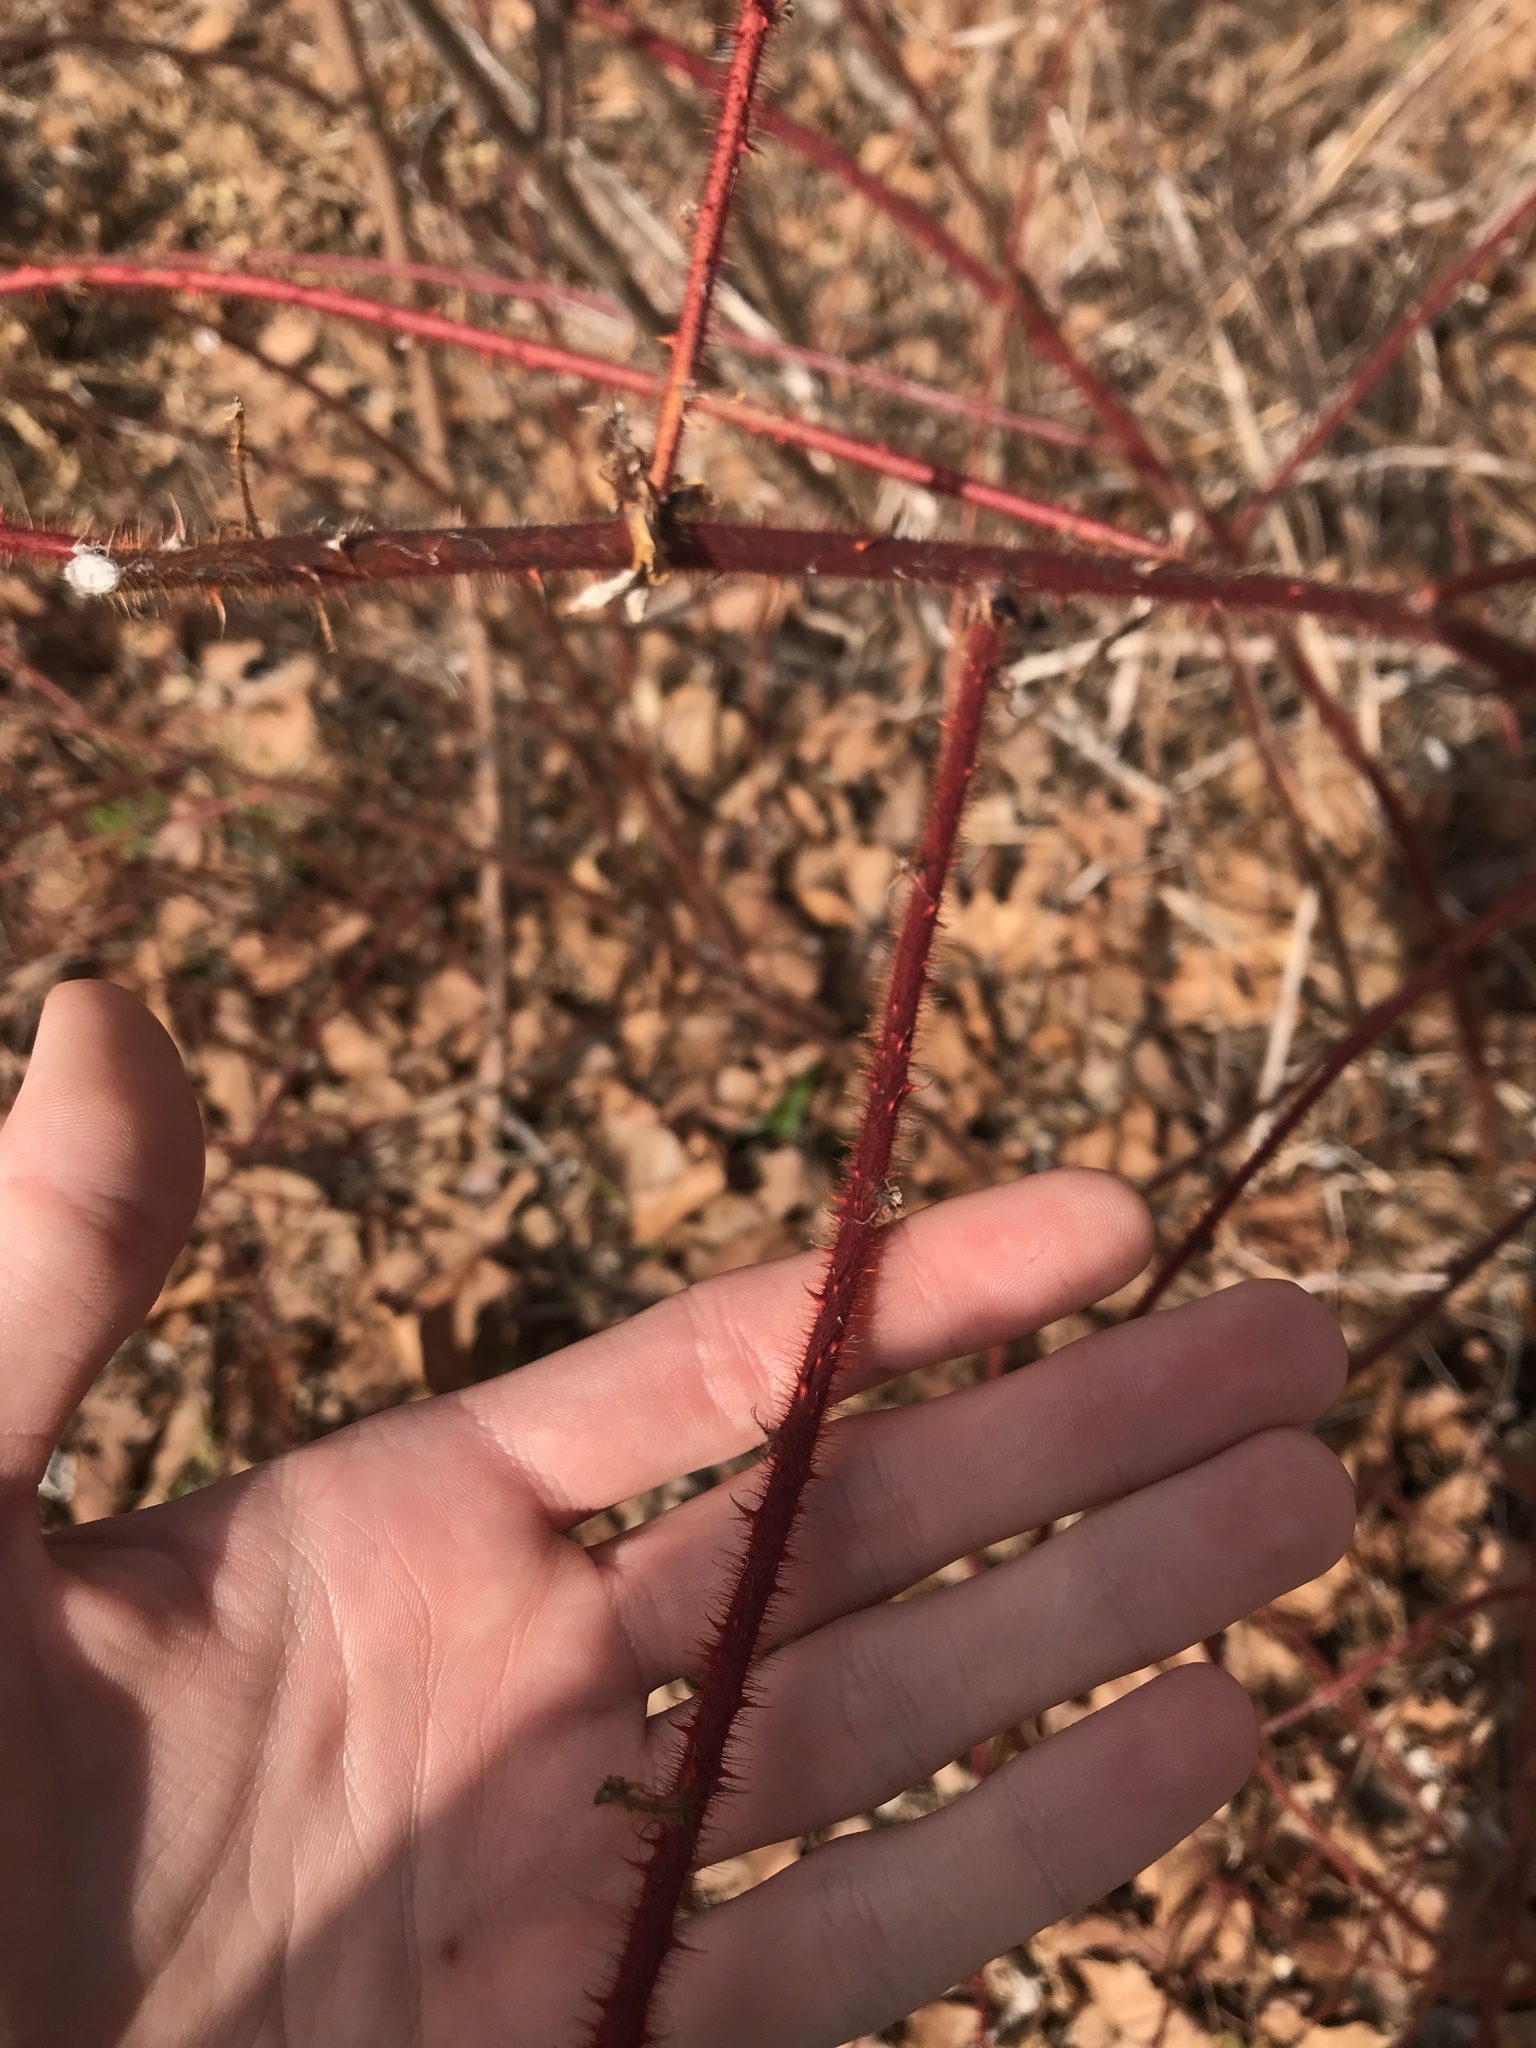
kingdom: Plantae
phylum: Tracheophyta
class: Magnoliopsida
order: Rosales
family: Rosaceae
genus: Rubus
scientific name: Rubus phoenicolasius
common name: Japanese wineberry
